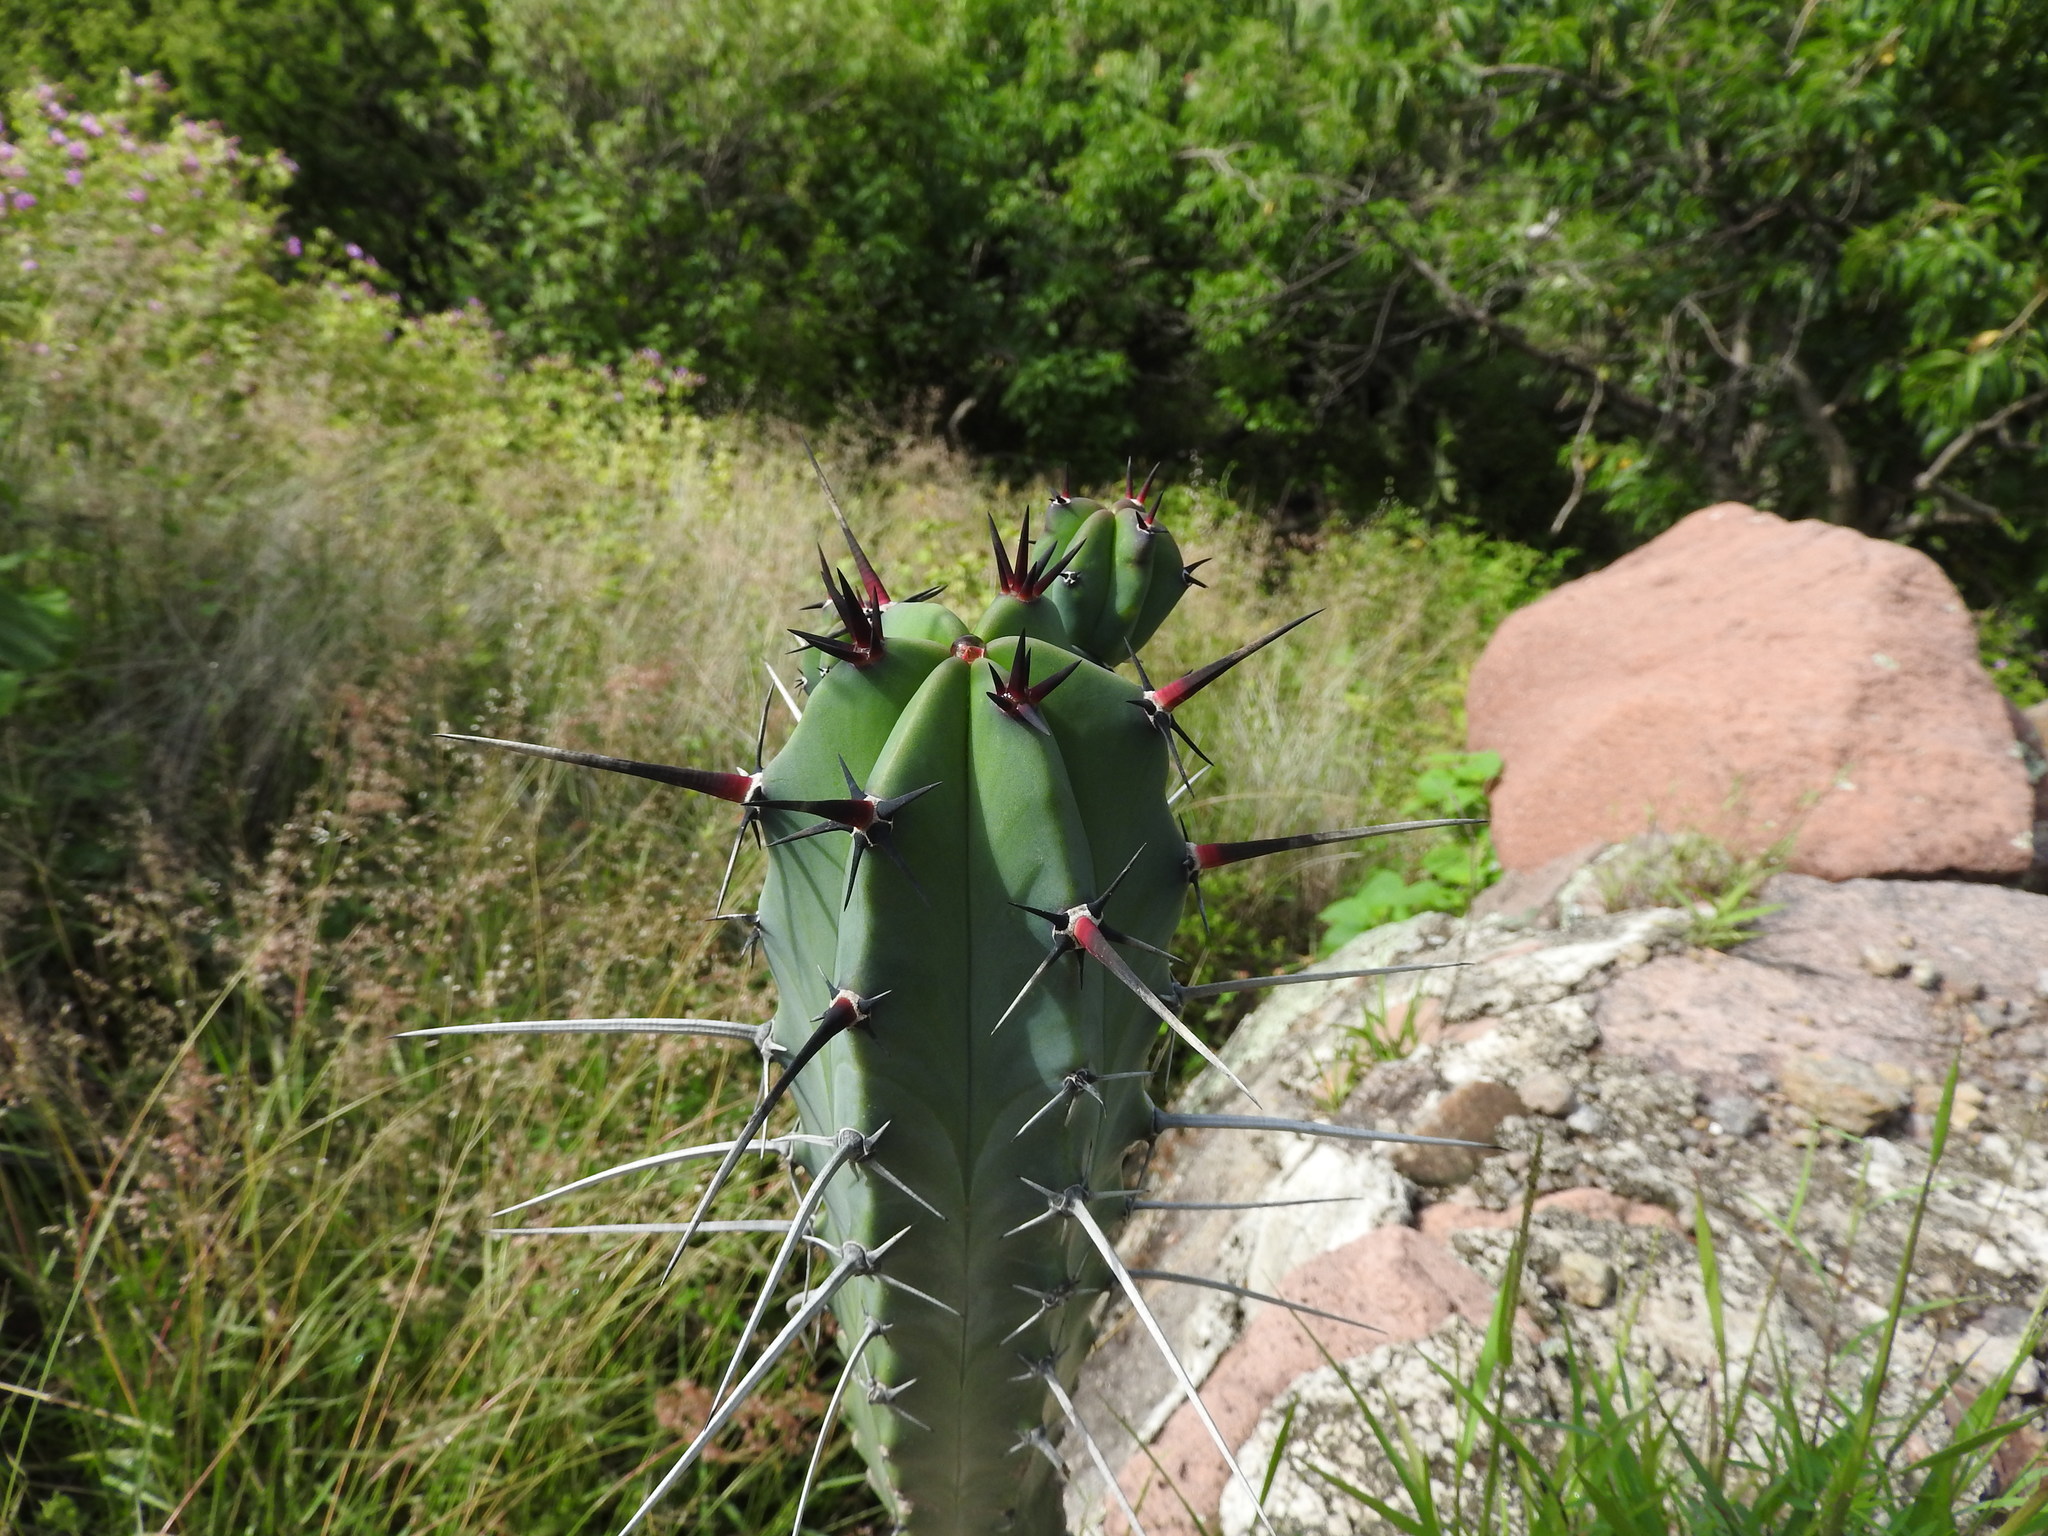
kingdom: Plantae
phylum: Tracheophyta
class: Magnoliopsida
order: Caryophyllales
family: Cactaceae
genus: Myrtillocactus
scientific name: Myrtillocactus geometrizans
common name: Bilberry cactus
